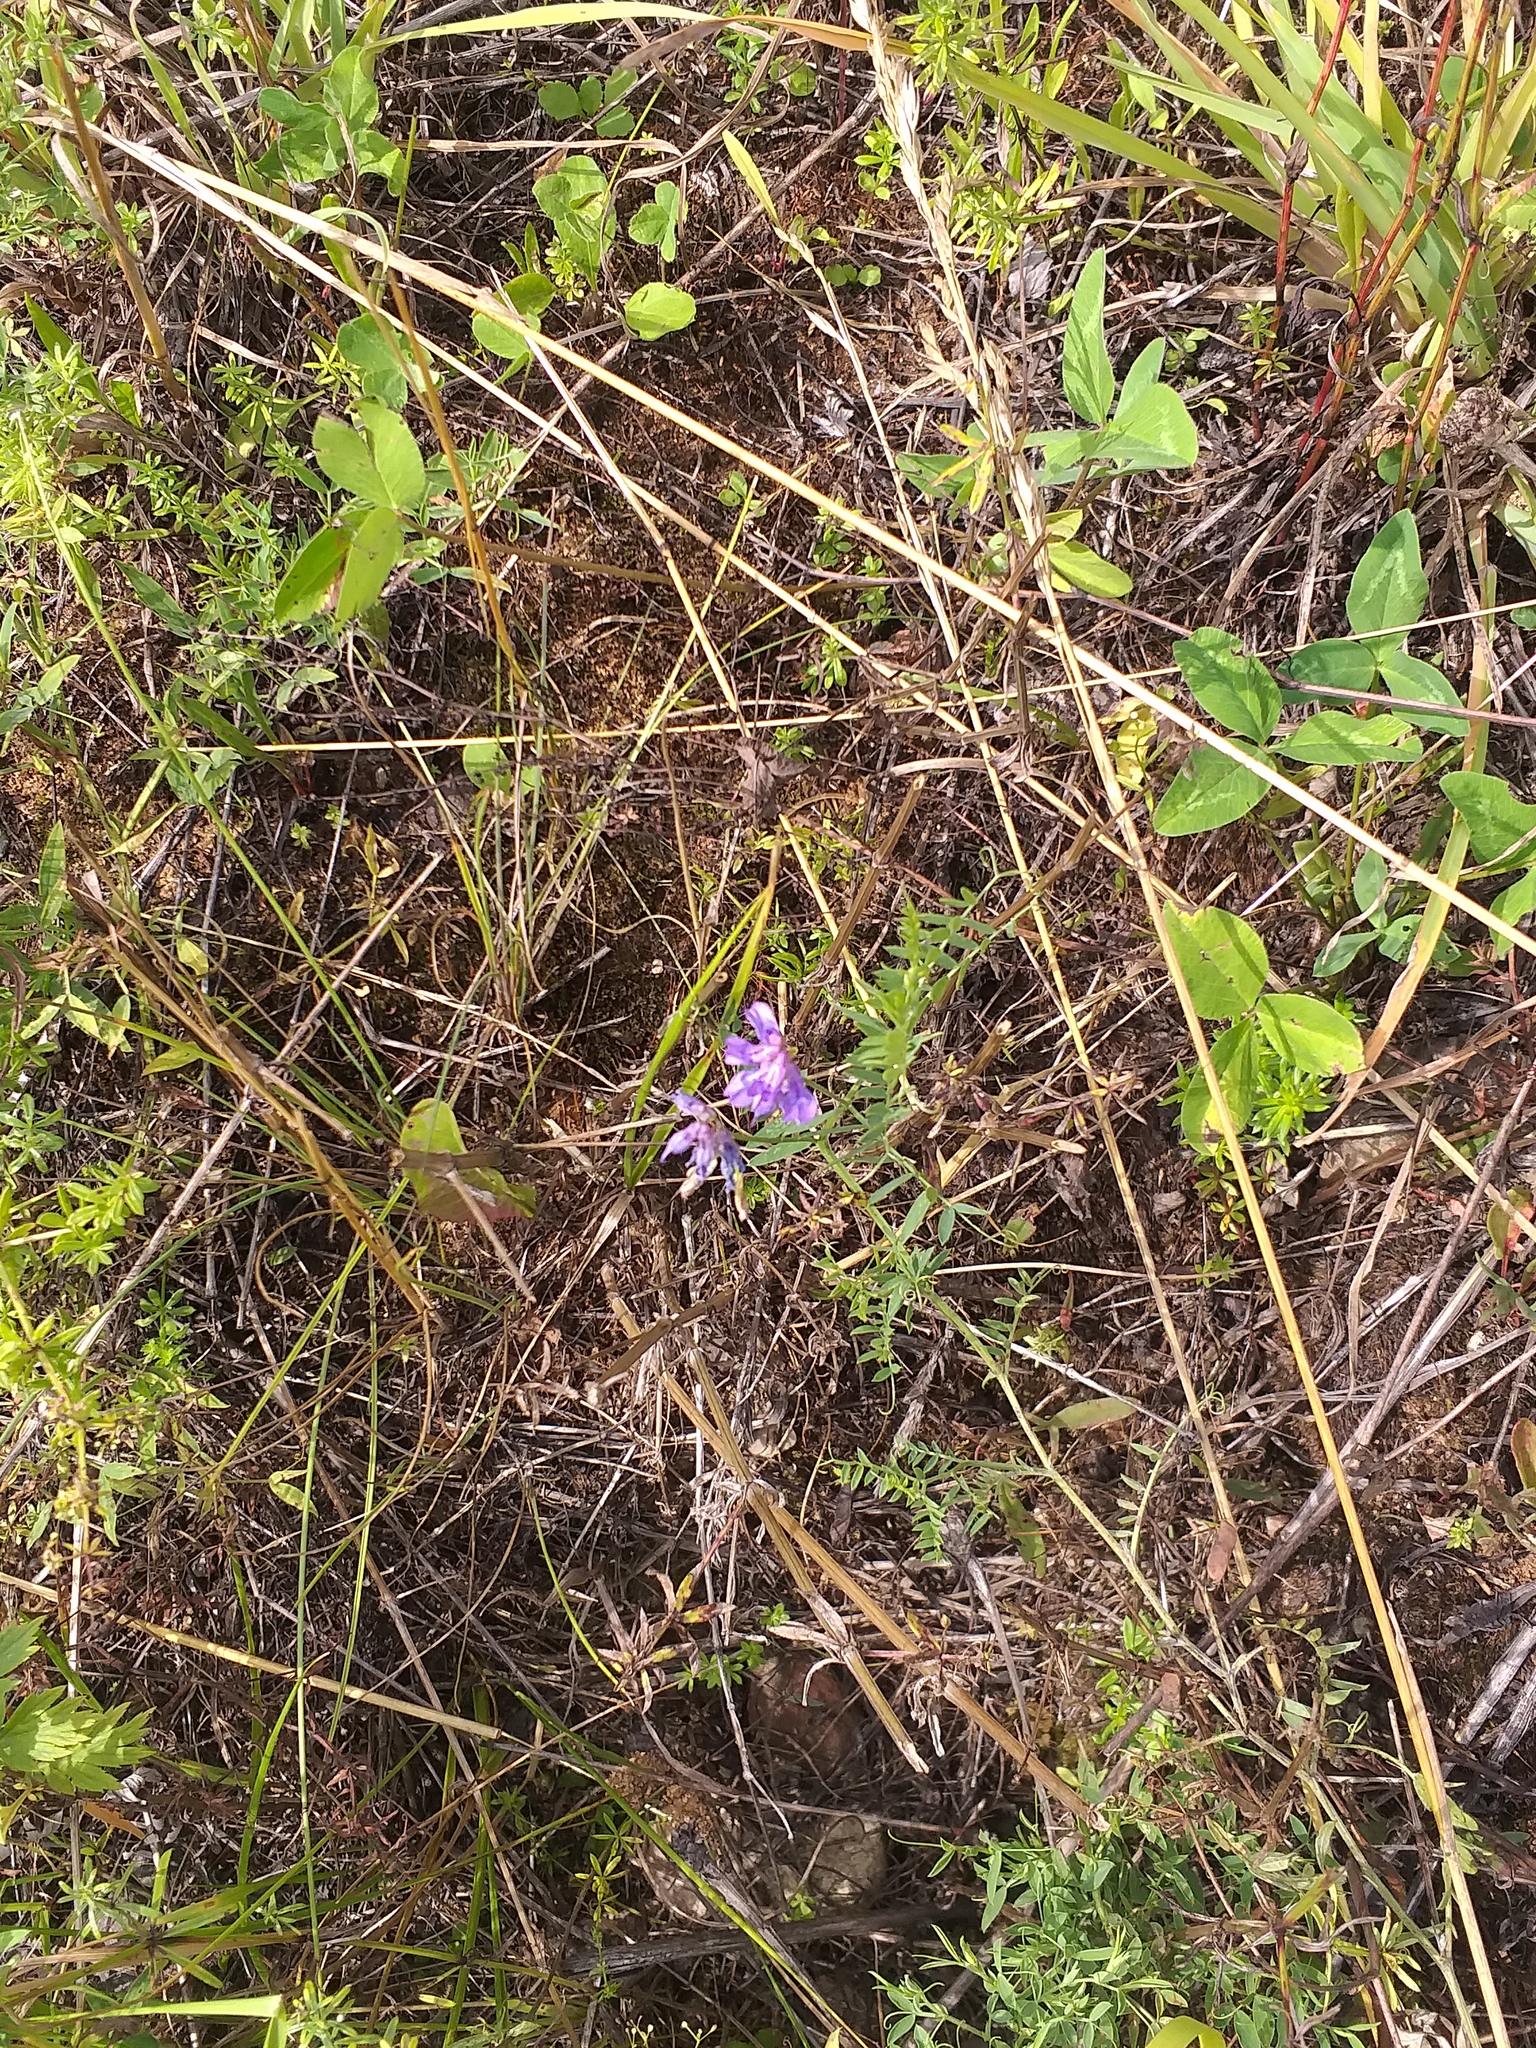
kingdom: Plantae
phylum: Tracheophyta
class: Magnoliopsida
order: Fabales
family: Fabaceae
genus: Vicia
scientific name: Vicia cracca
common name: Bird vetch
